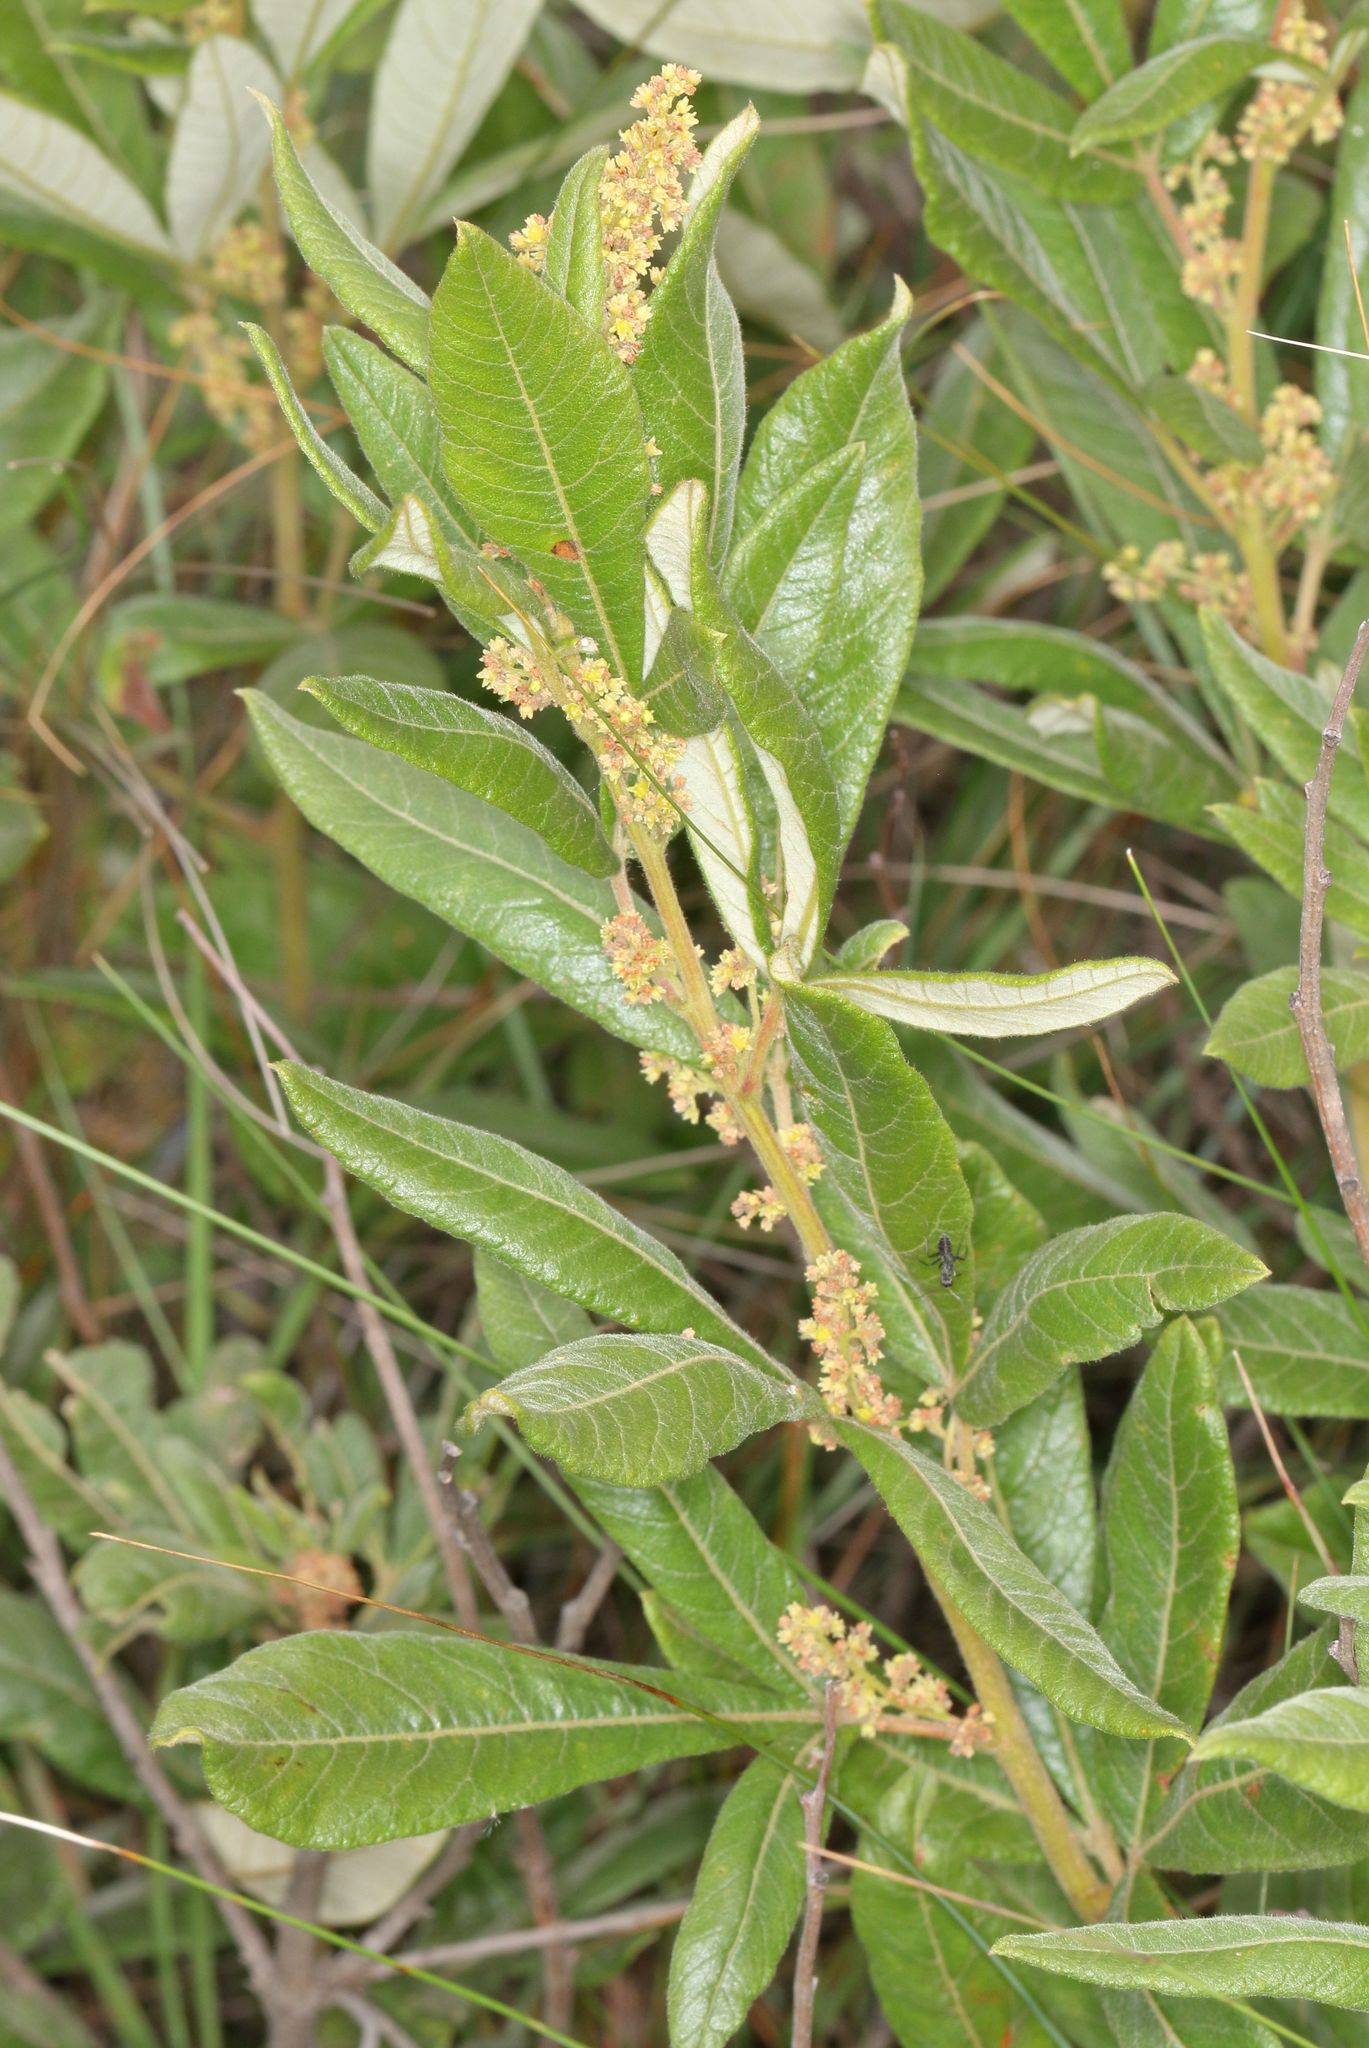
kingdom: Plantae
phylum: Tracheophyta
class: Magnoliopsida
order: Sapindales
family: Anacardiaceae
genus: Searsia
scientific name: Searsia discolor
